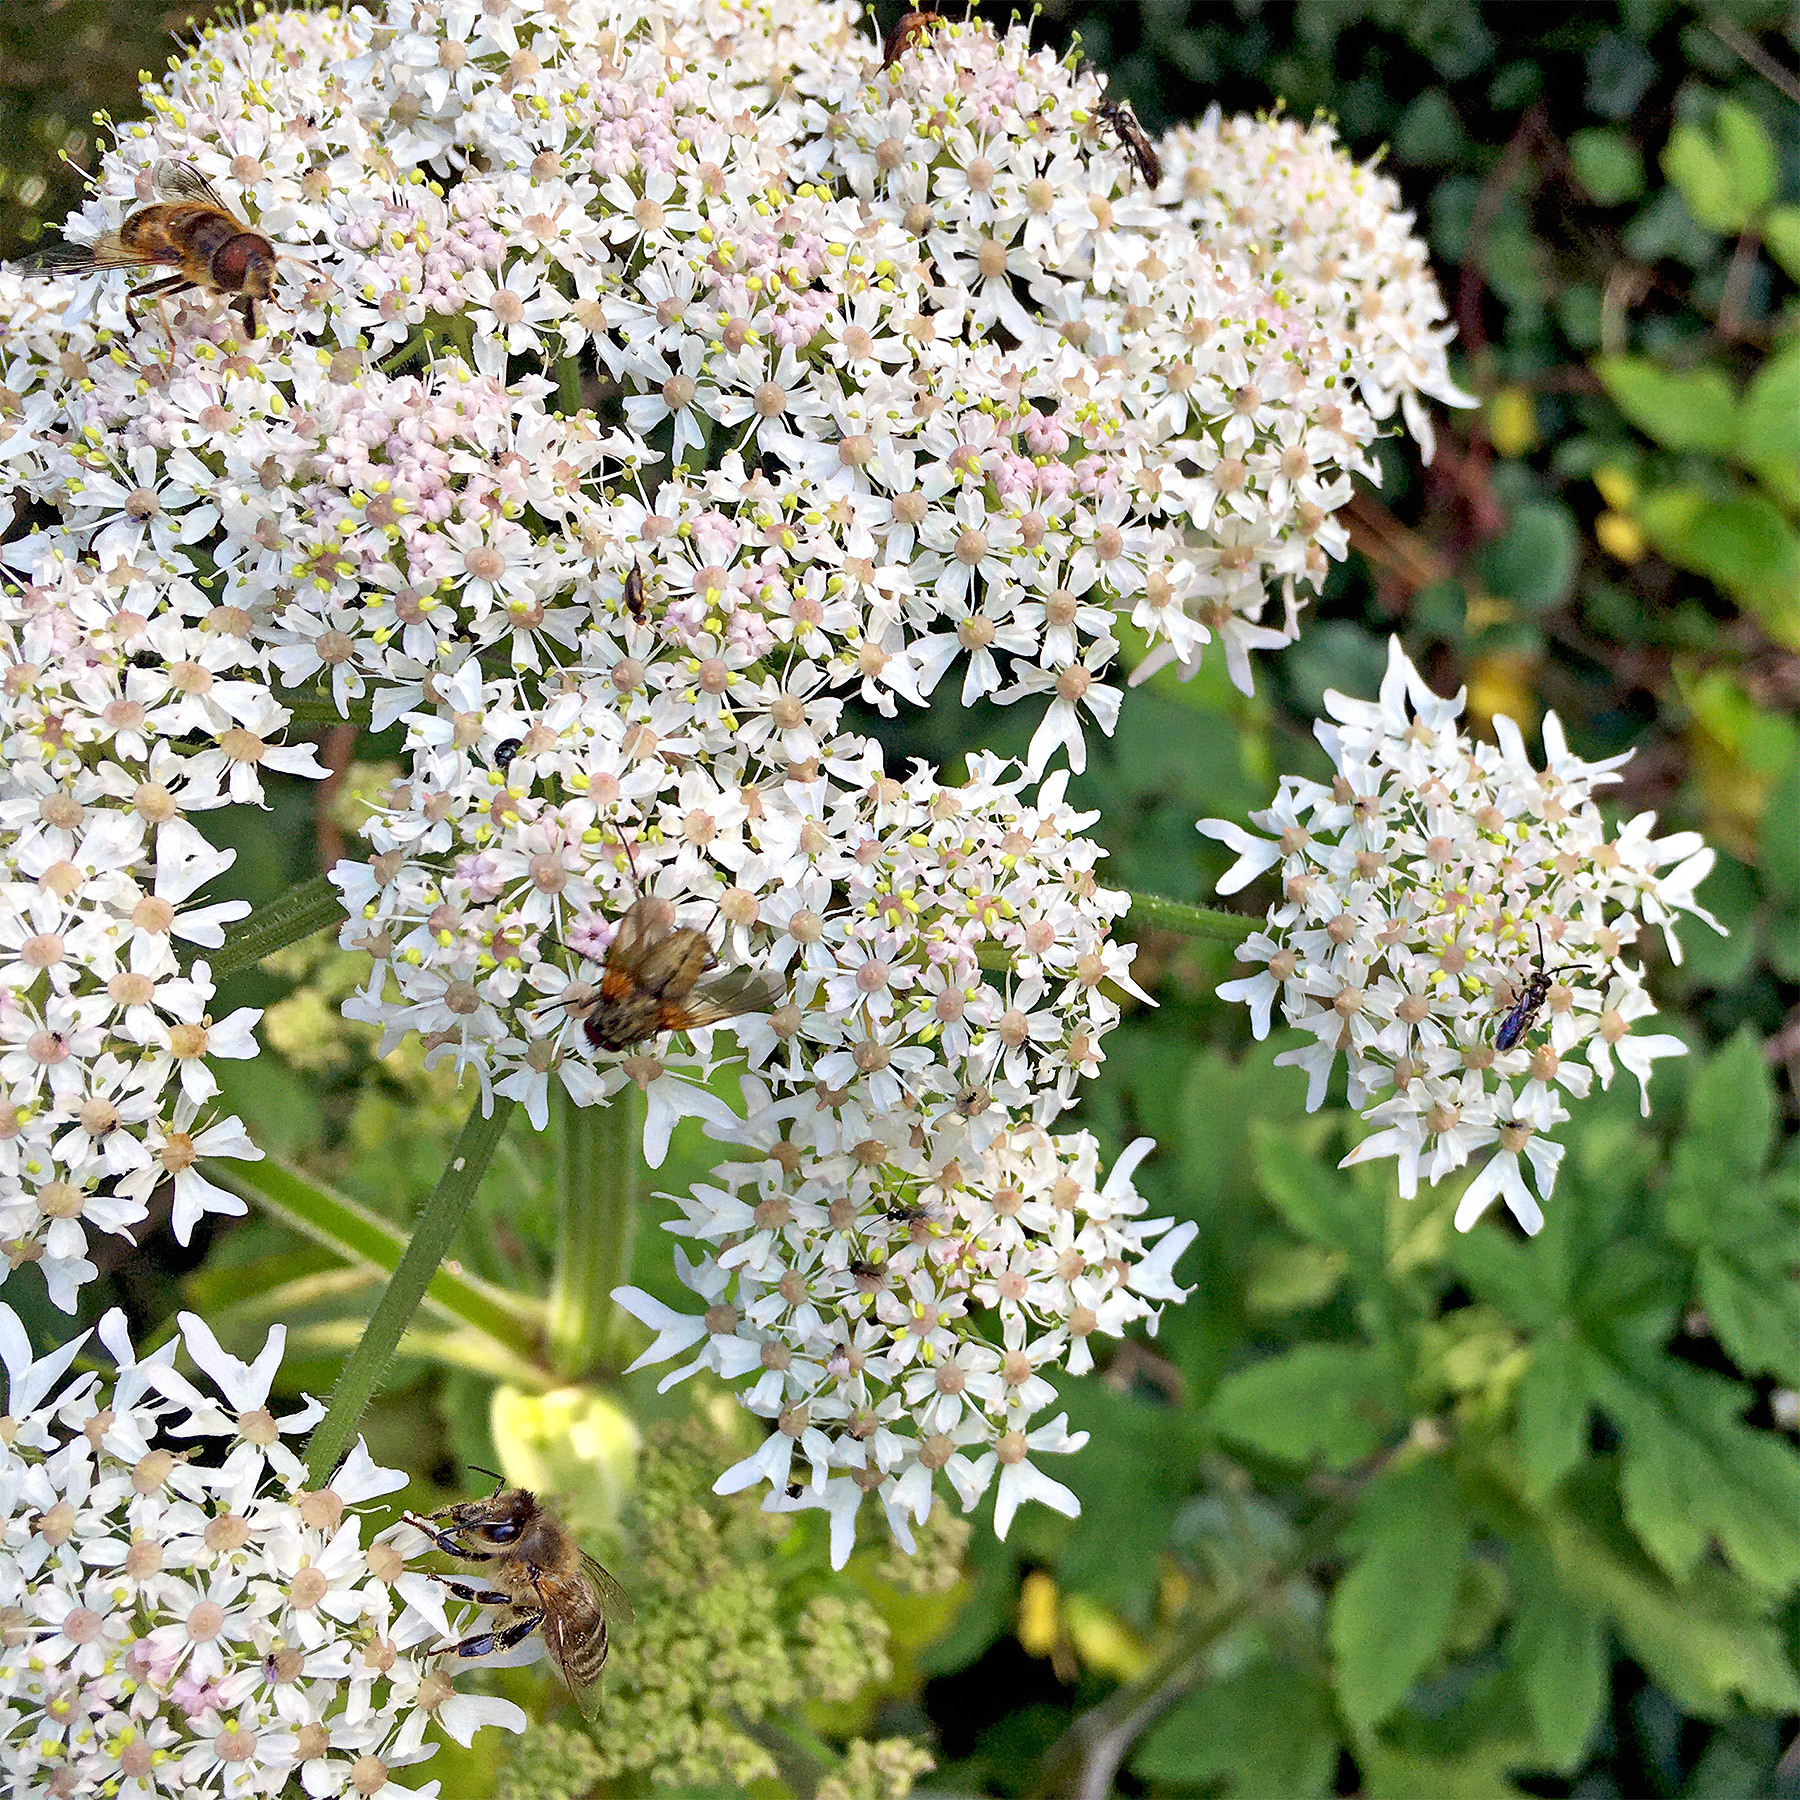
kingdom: Animalia
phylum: Arthropoda
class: Insecta
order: Diptera
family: Syrphidae
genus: Eristalis
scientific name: Eristalis pertinax
